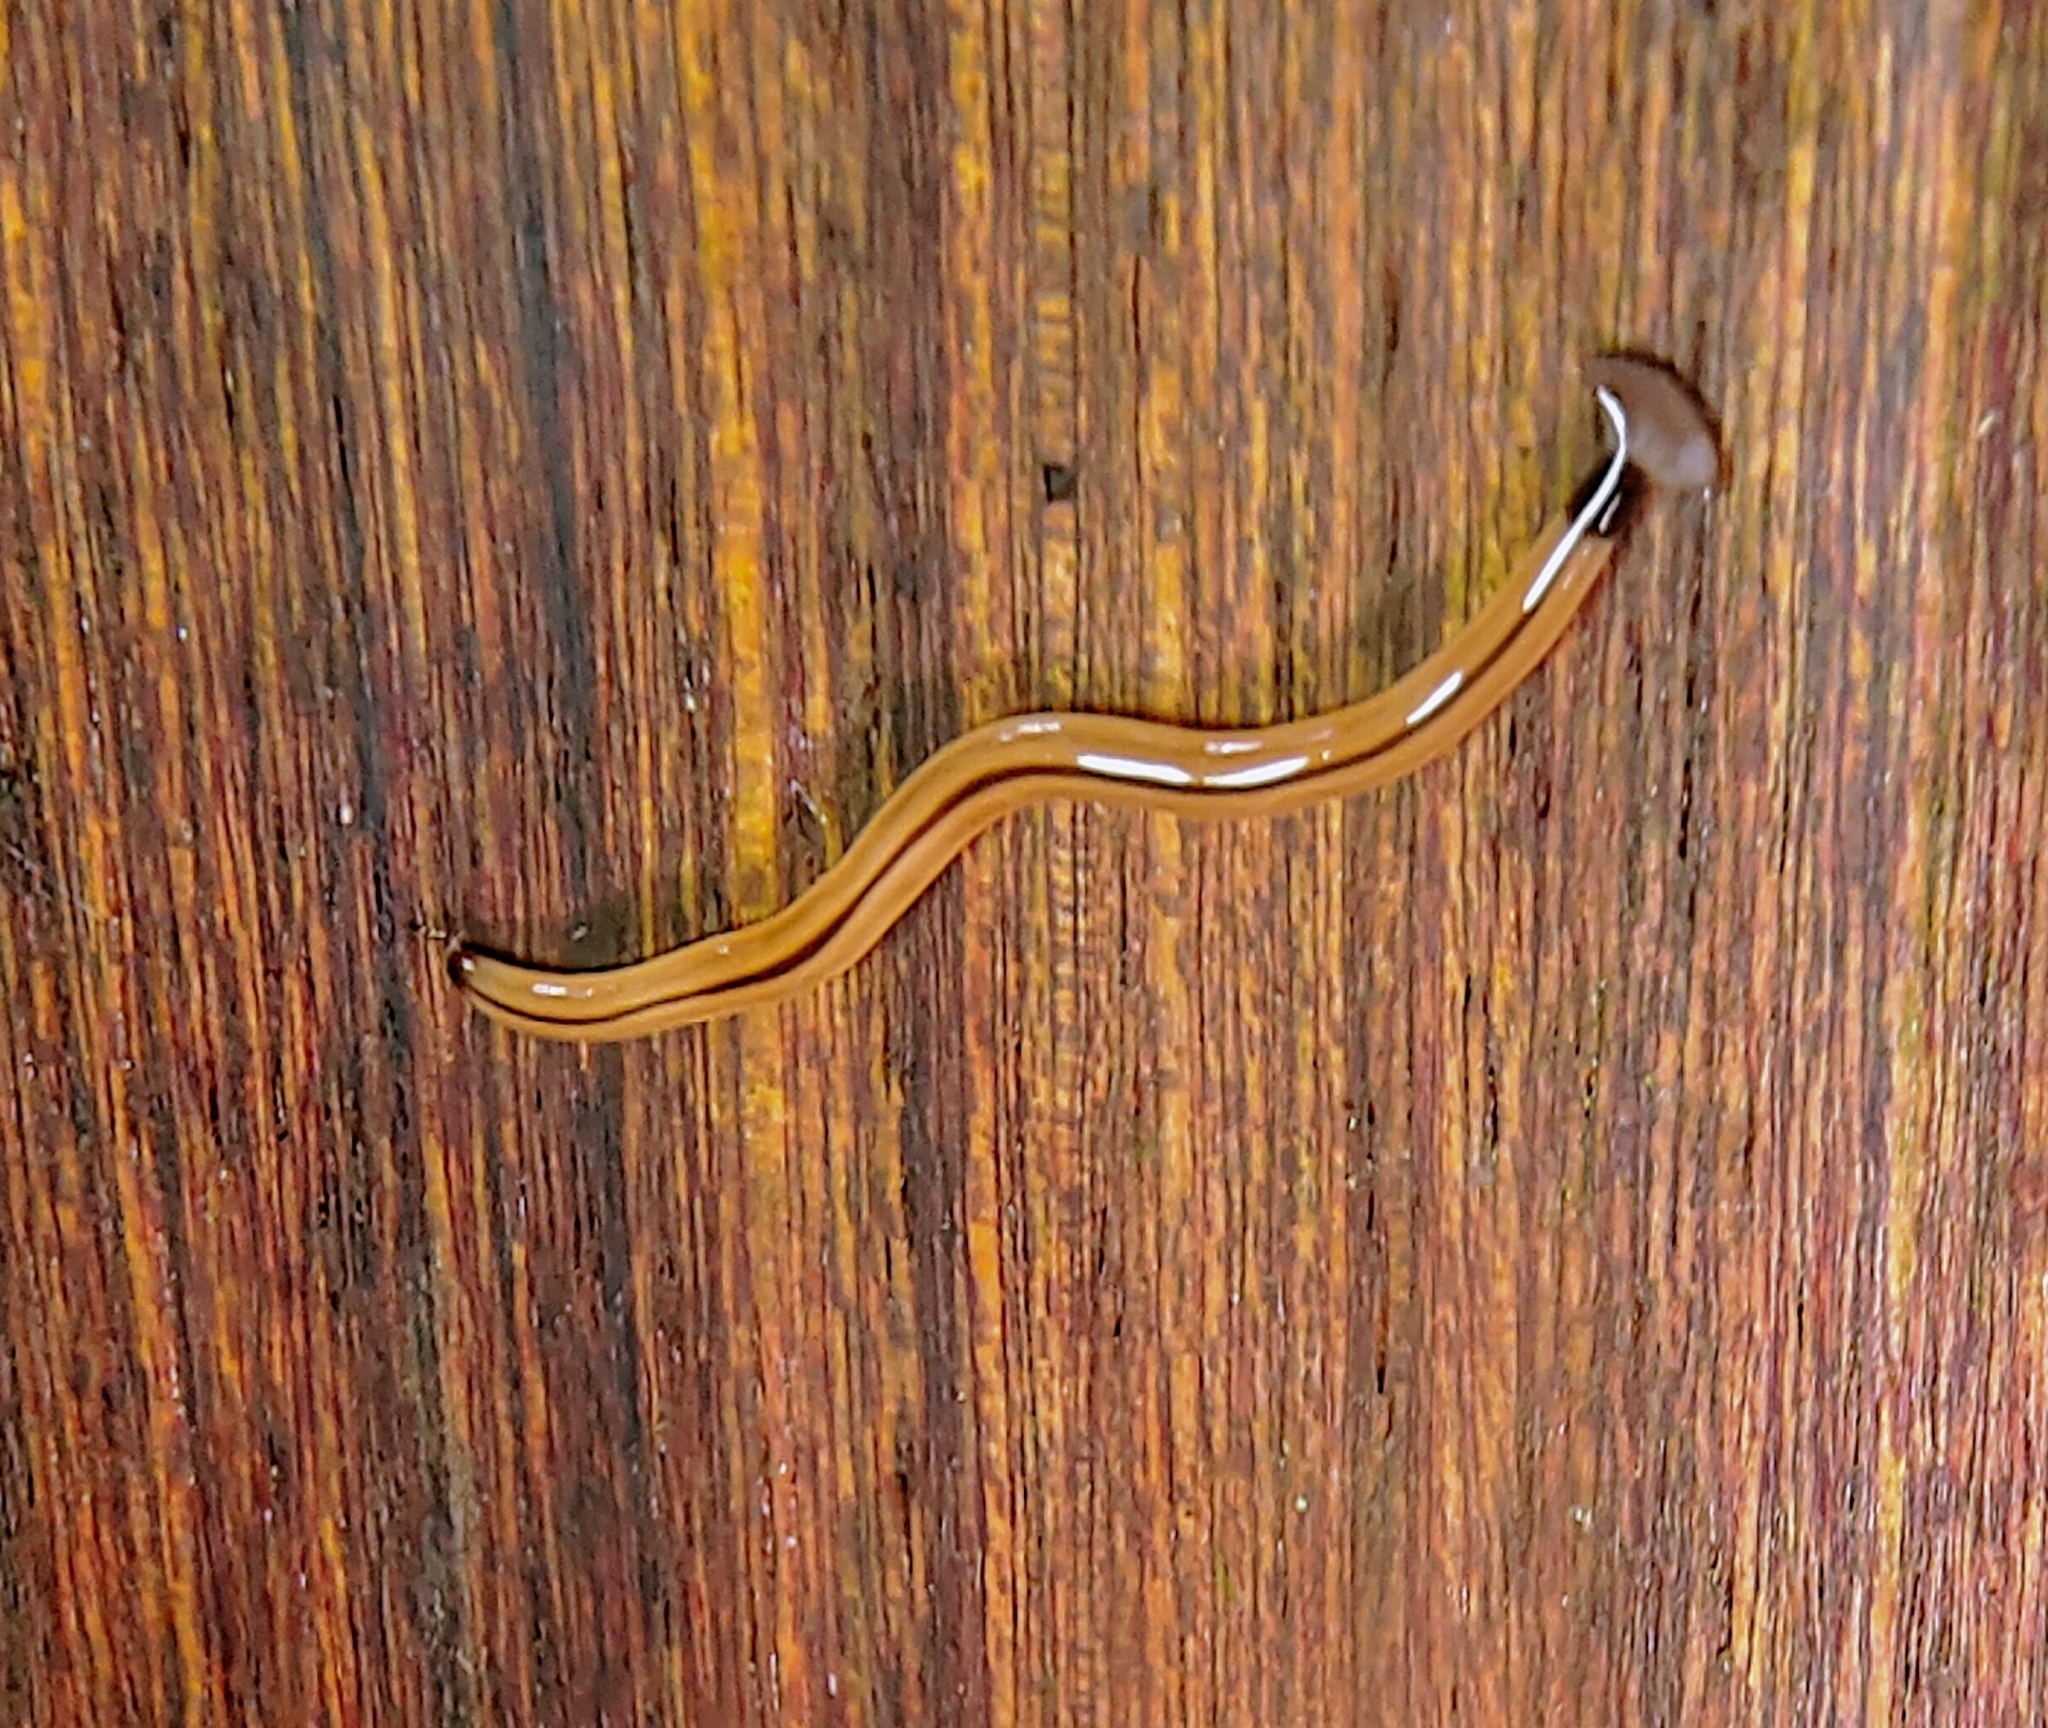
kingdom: Animalia
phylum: Platyhelminthes
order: Tricladida
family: Geoplanidae
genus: Bipalium
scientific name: Bipalium vagum
